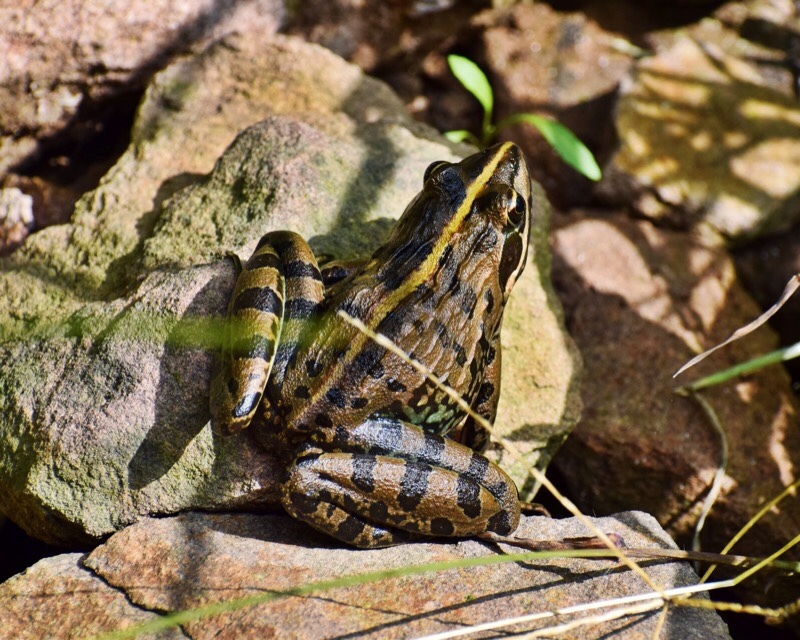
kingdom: Animalia
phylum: Chordata
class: Amphibia
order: Anura
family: Pyxicephalidae
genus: Amietia
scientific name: Amietia delalandii
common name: Delalande's river frog
